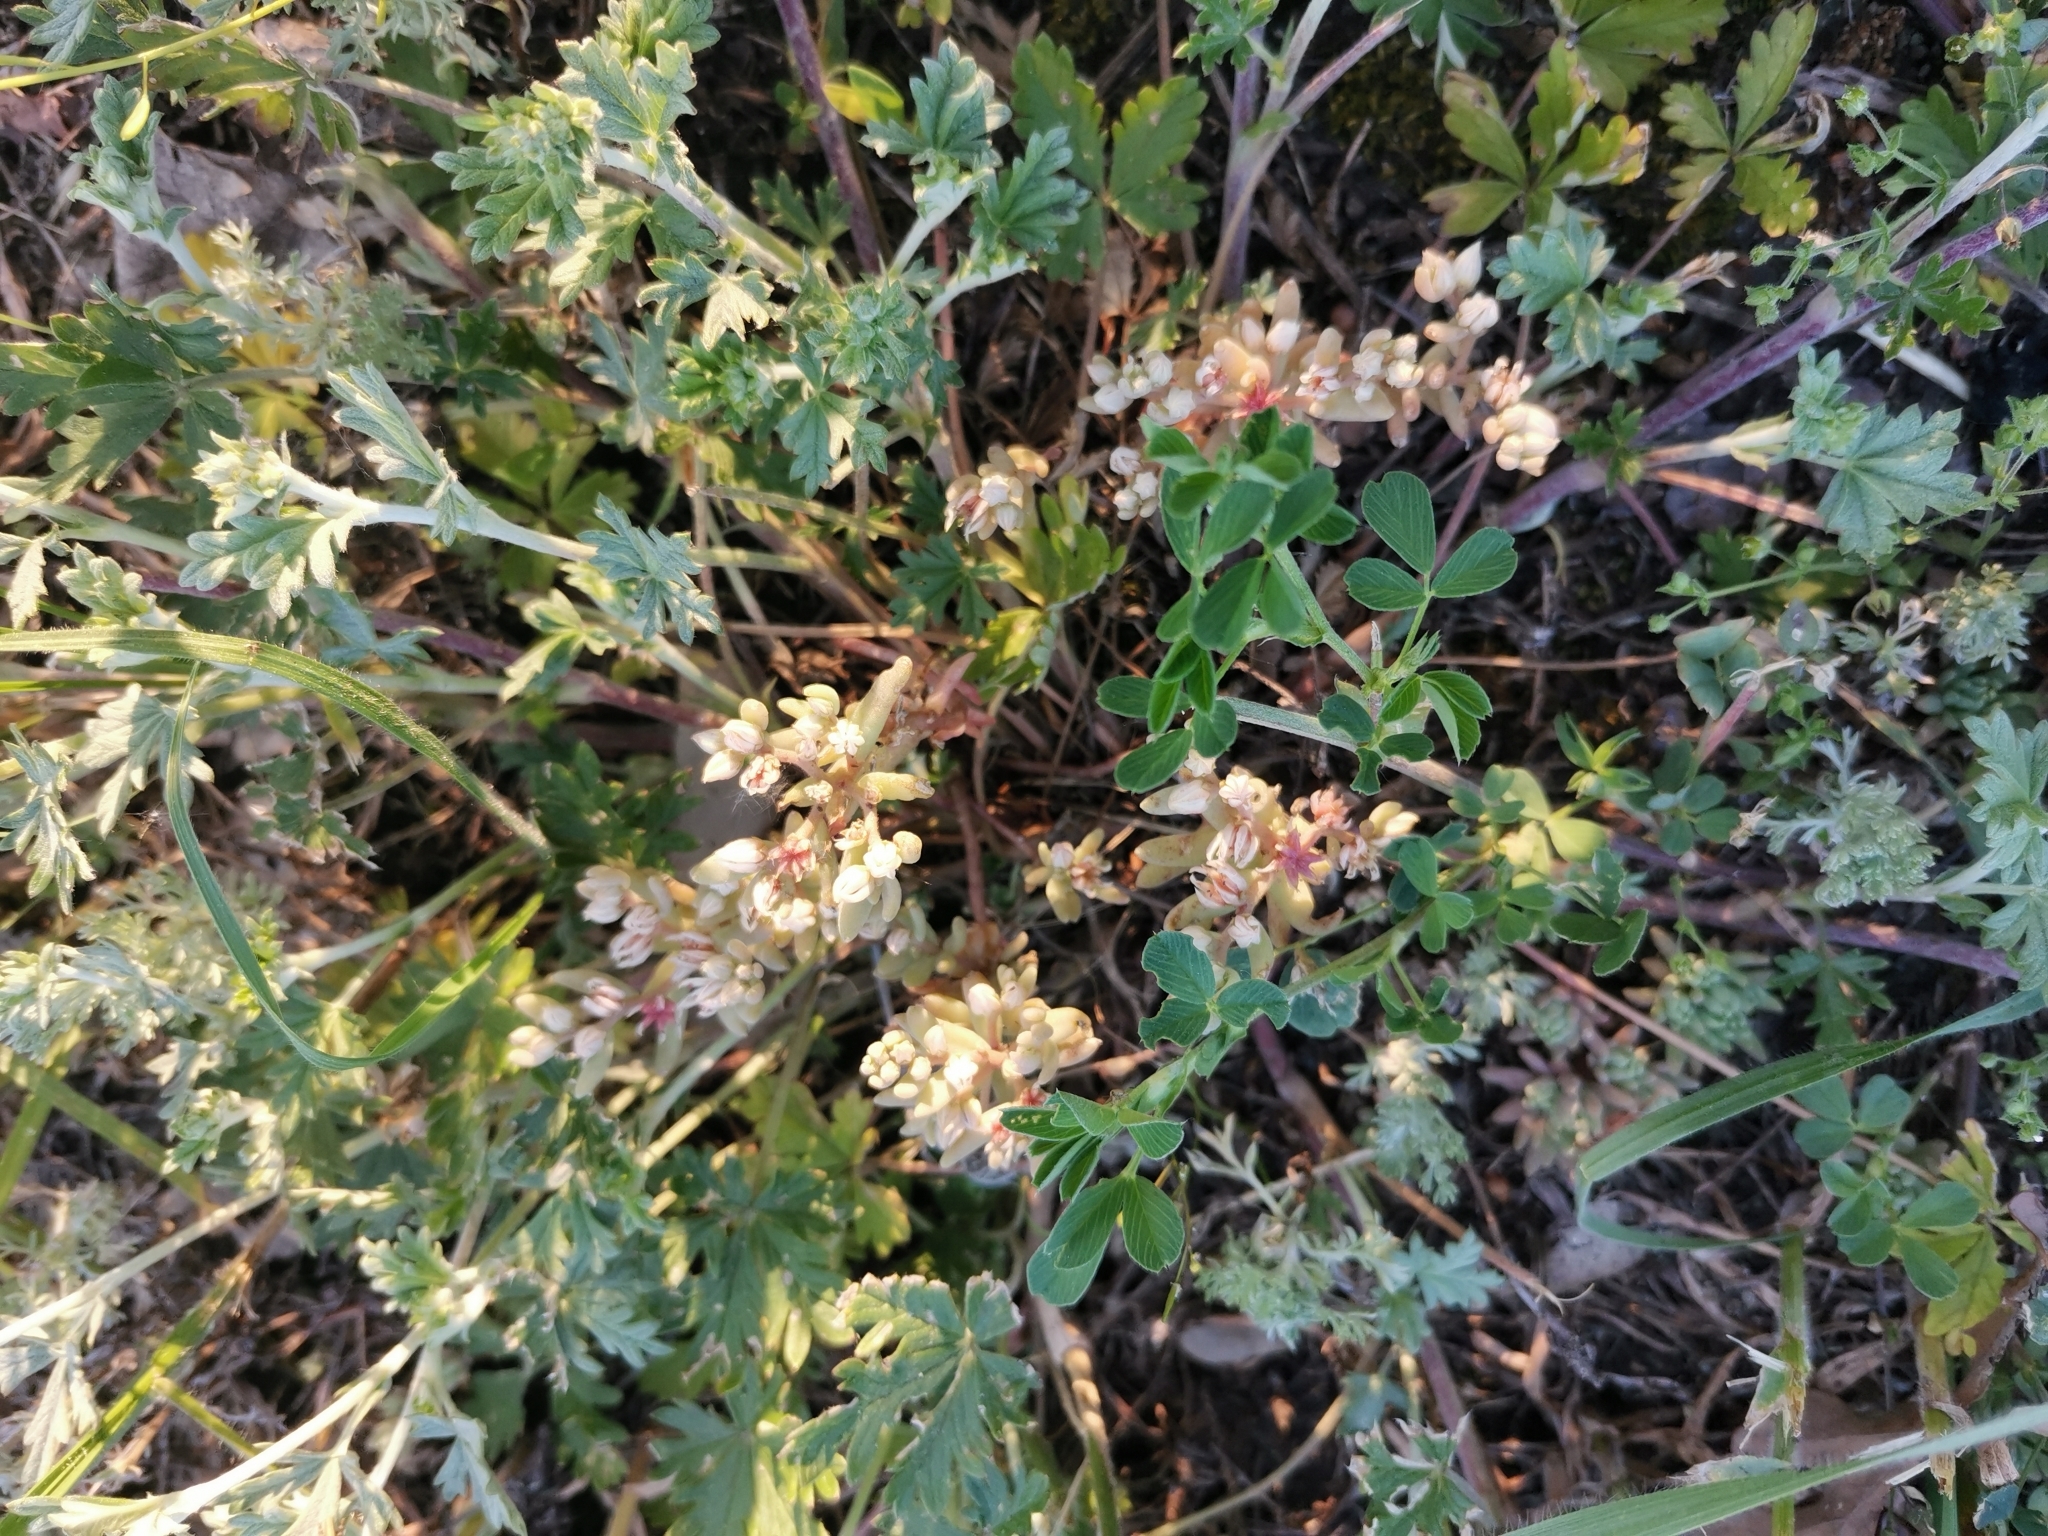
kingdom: Plantae
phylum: Tracheophyta
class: Magnoliopsida
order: Saxifragales
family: Crassulaceae
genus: Sedum
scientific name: Sedum hispanicum
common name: Spanish stonecrop
